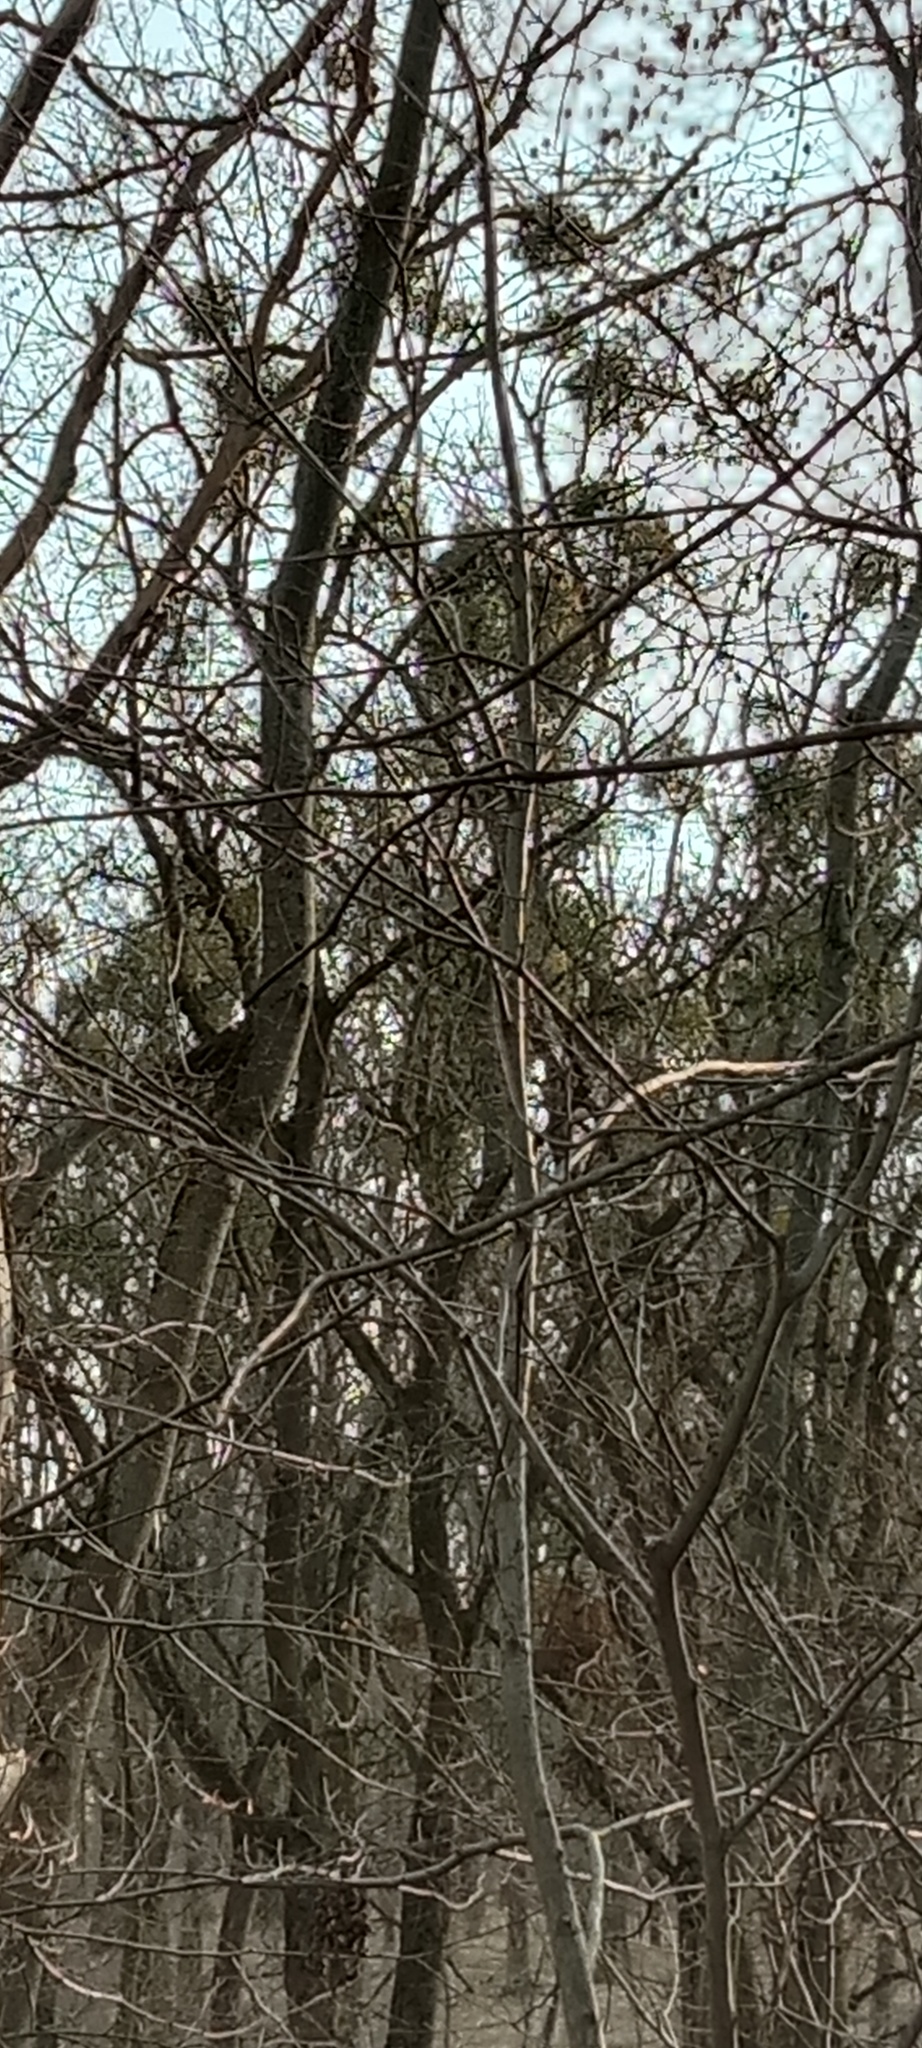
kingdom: Plantae
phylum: Tracheophyta
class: Magnoliopsida
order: Santalales
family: Viscaceae
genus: Viscum
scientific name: Viscum album
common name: Mistletoe
